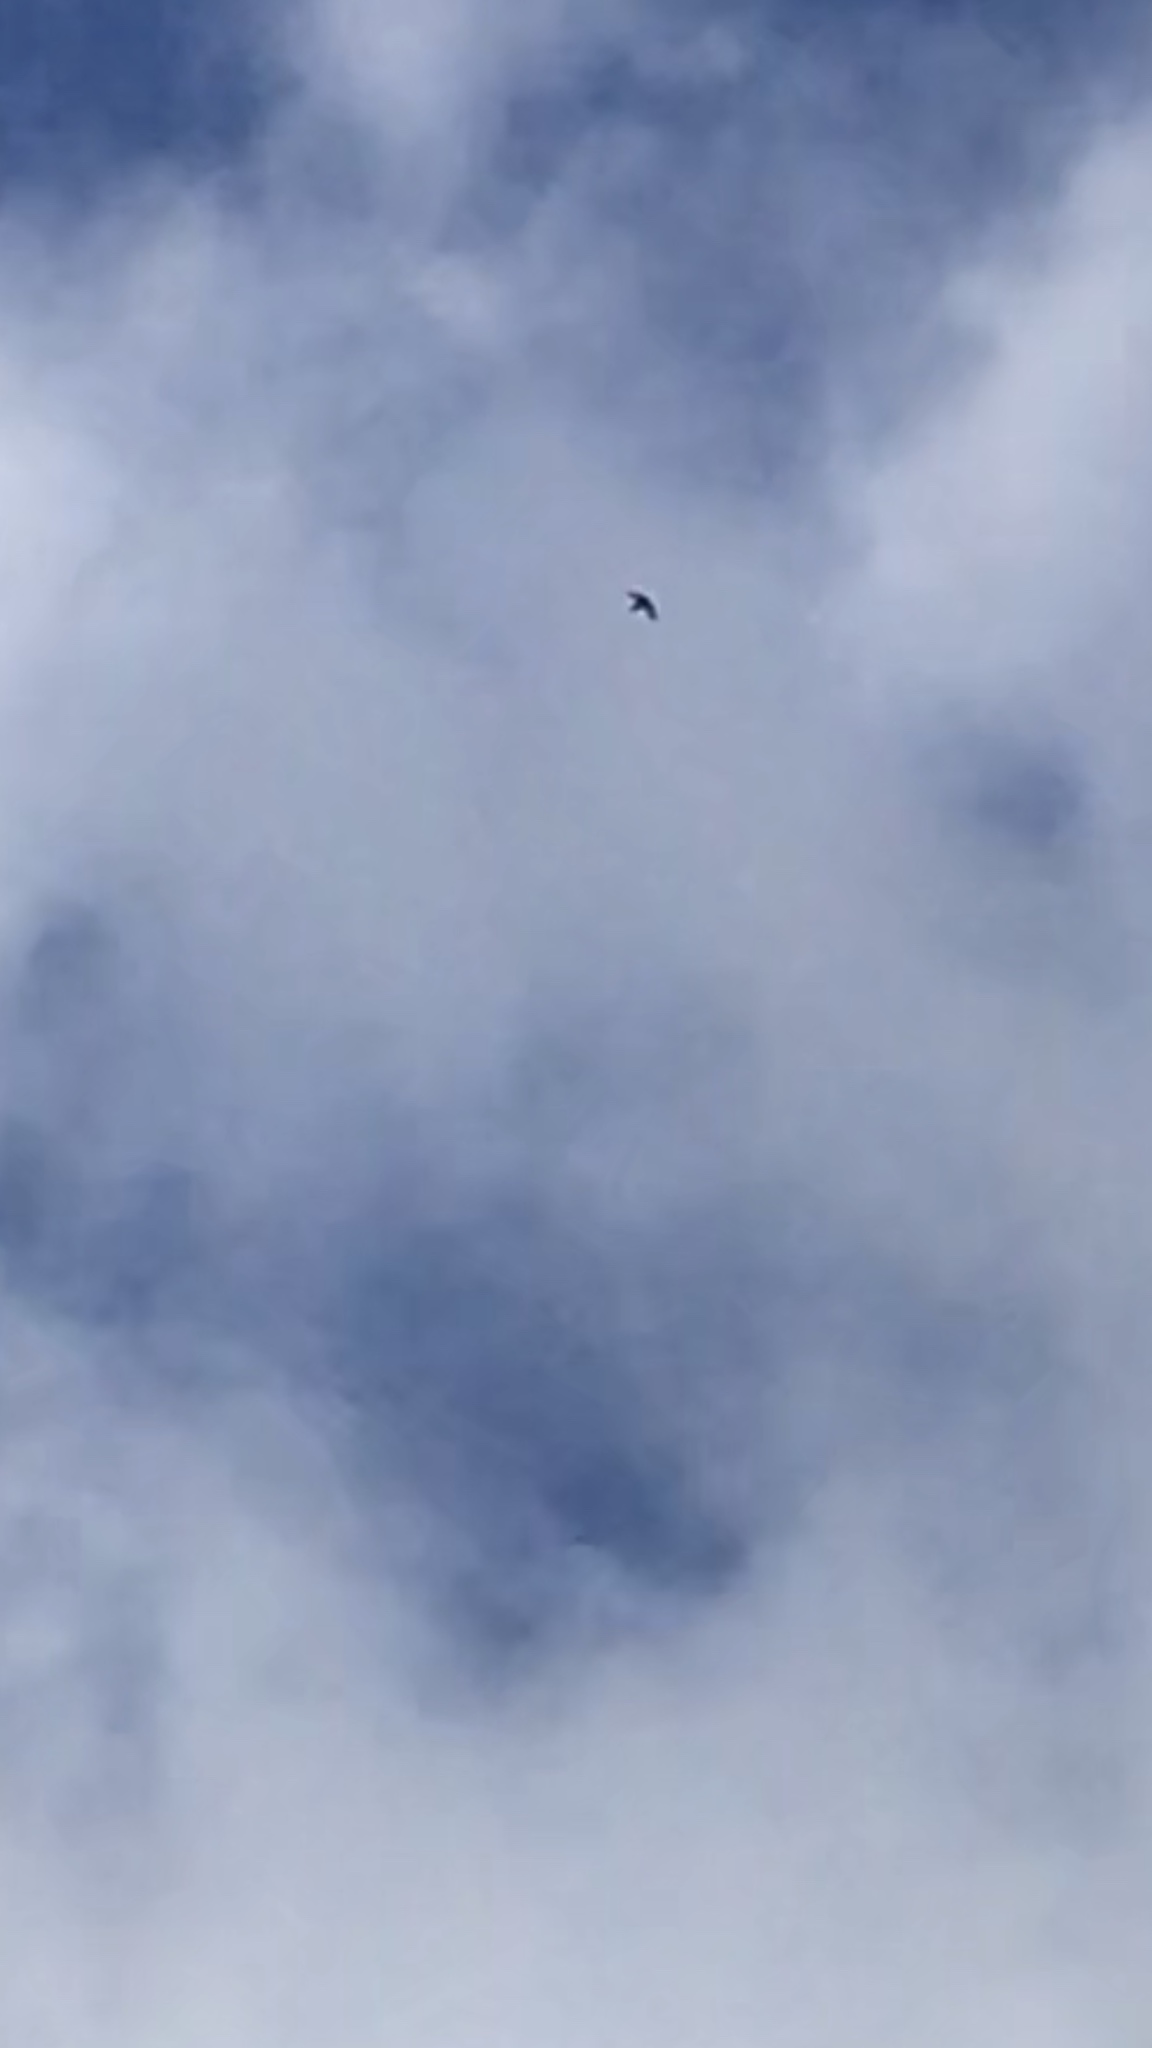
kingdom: Animalia
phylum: Chordata
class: Aves
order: Apodiformes
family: Apodidae
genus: Cypseloides
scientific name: Cypseloides niger
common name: Black swift
